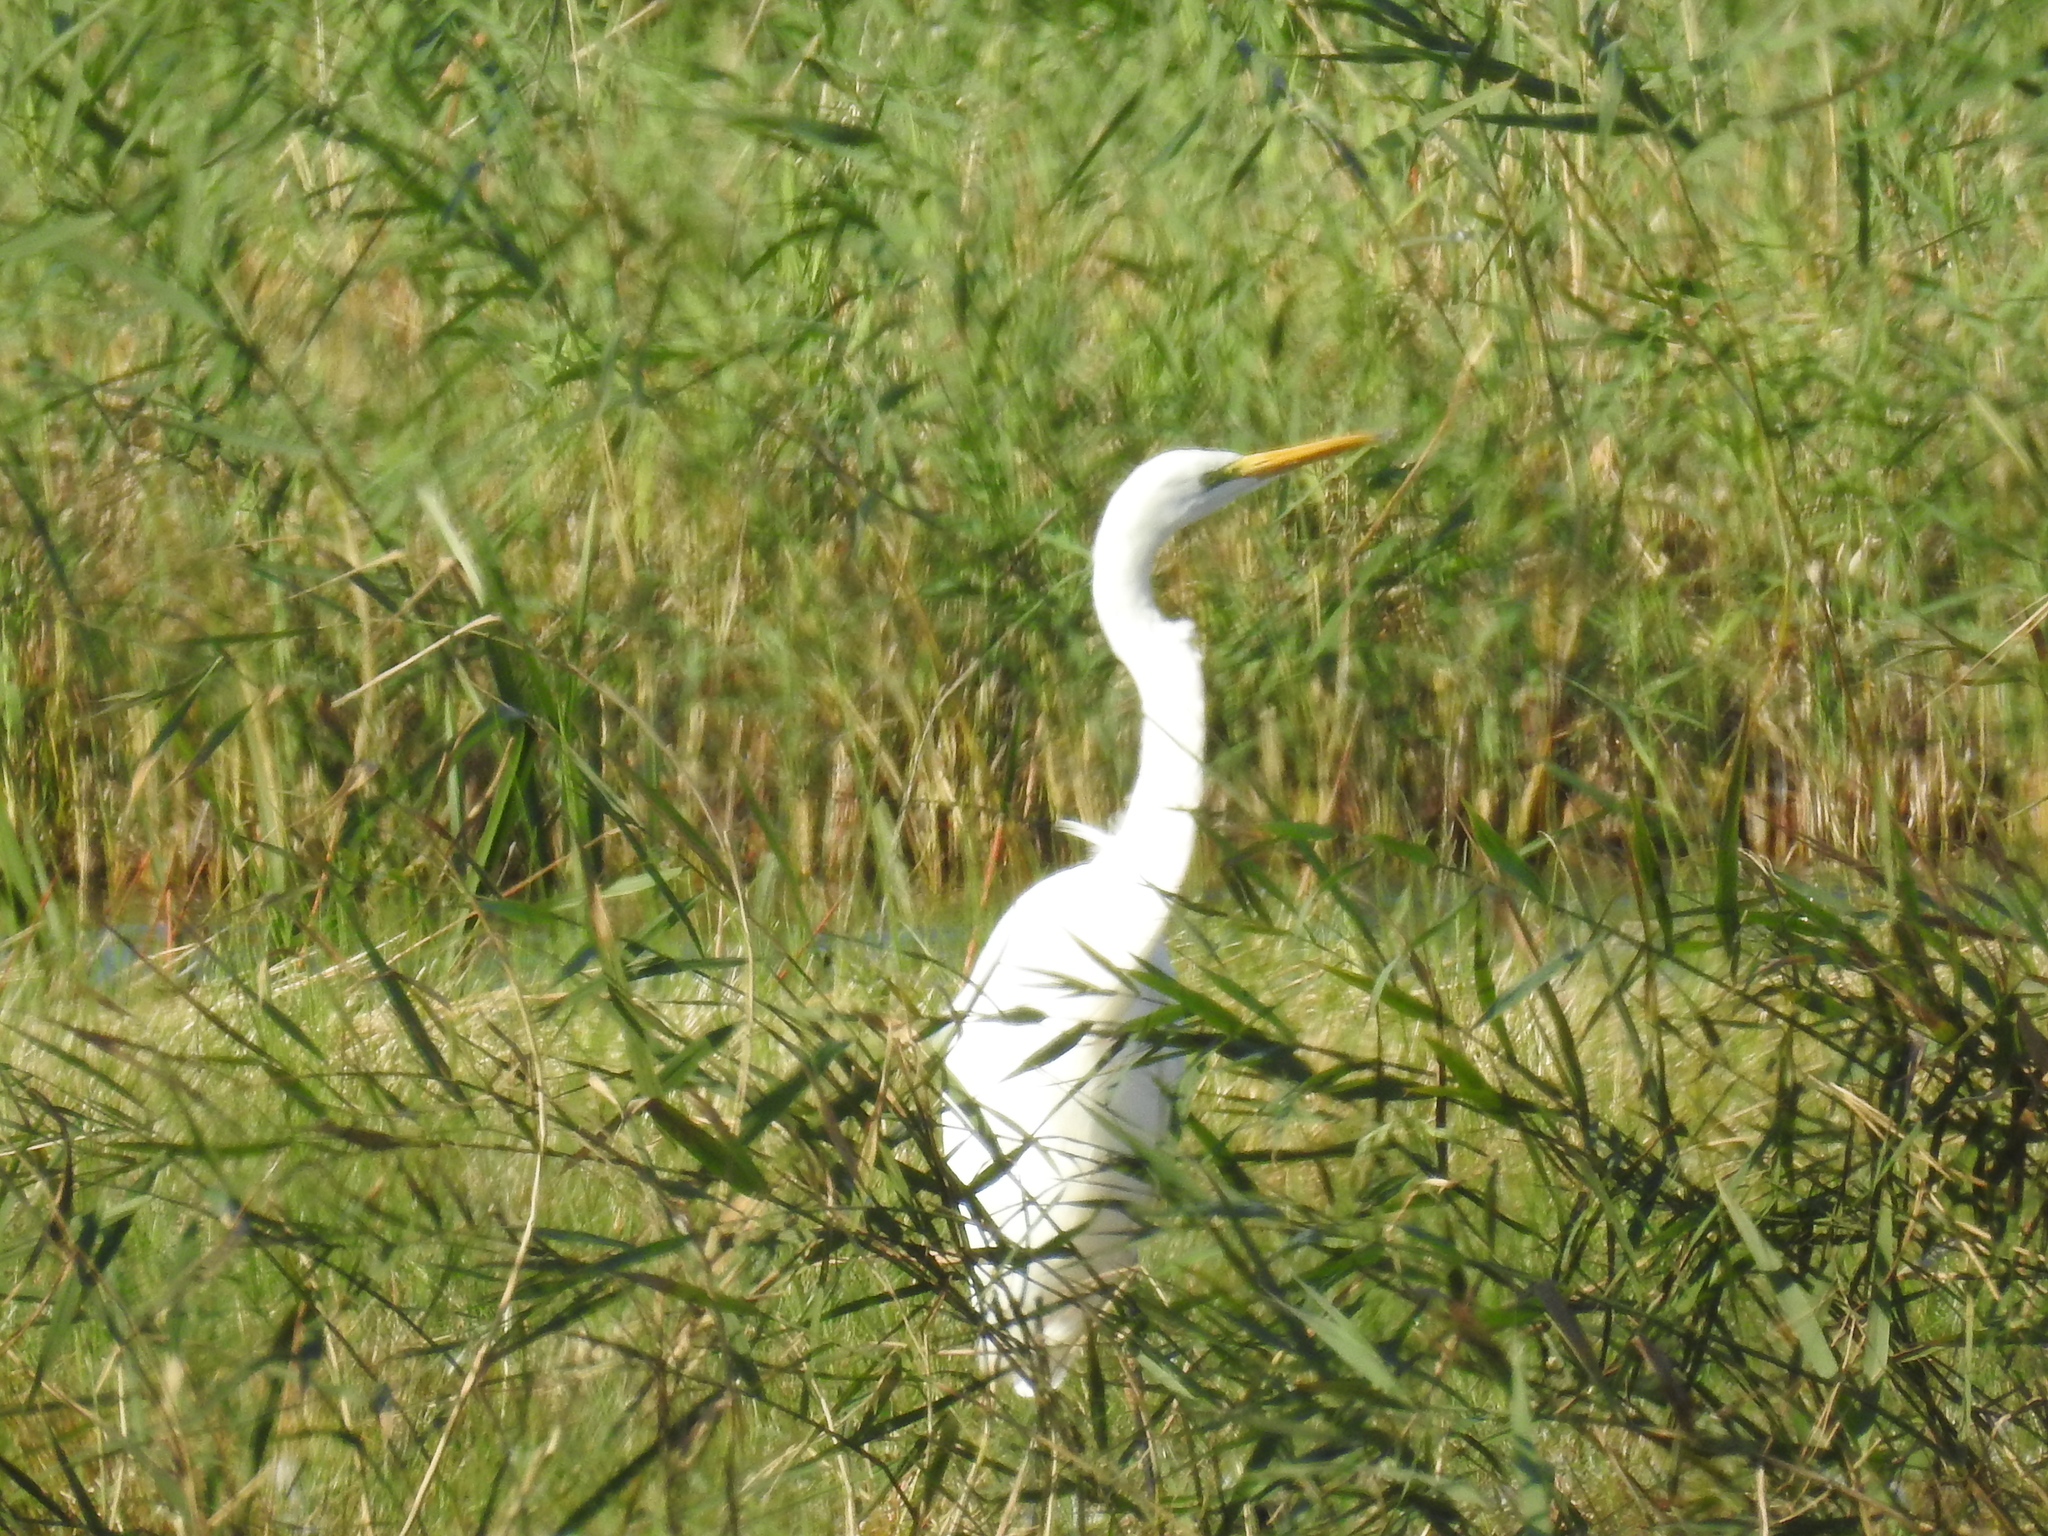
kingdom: Animalia
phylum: Chordata
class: Aves
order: Pelecaniformes
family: Ardeidae
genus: Ardea
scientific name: Ardea alba
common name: Great egret
